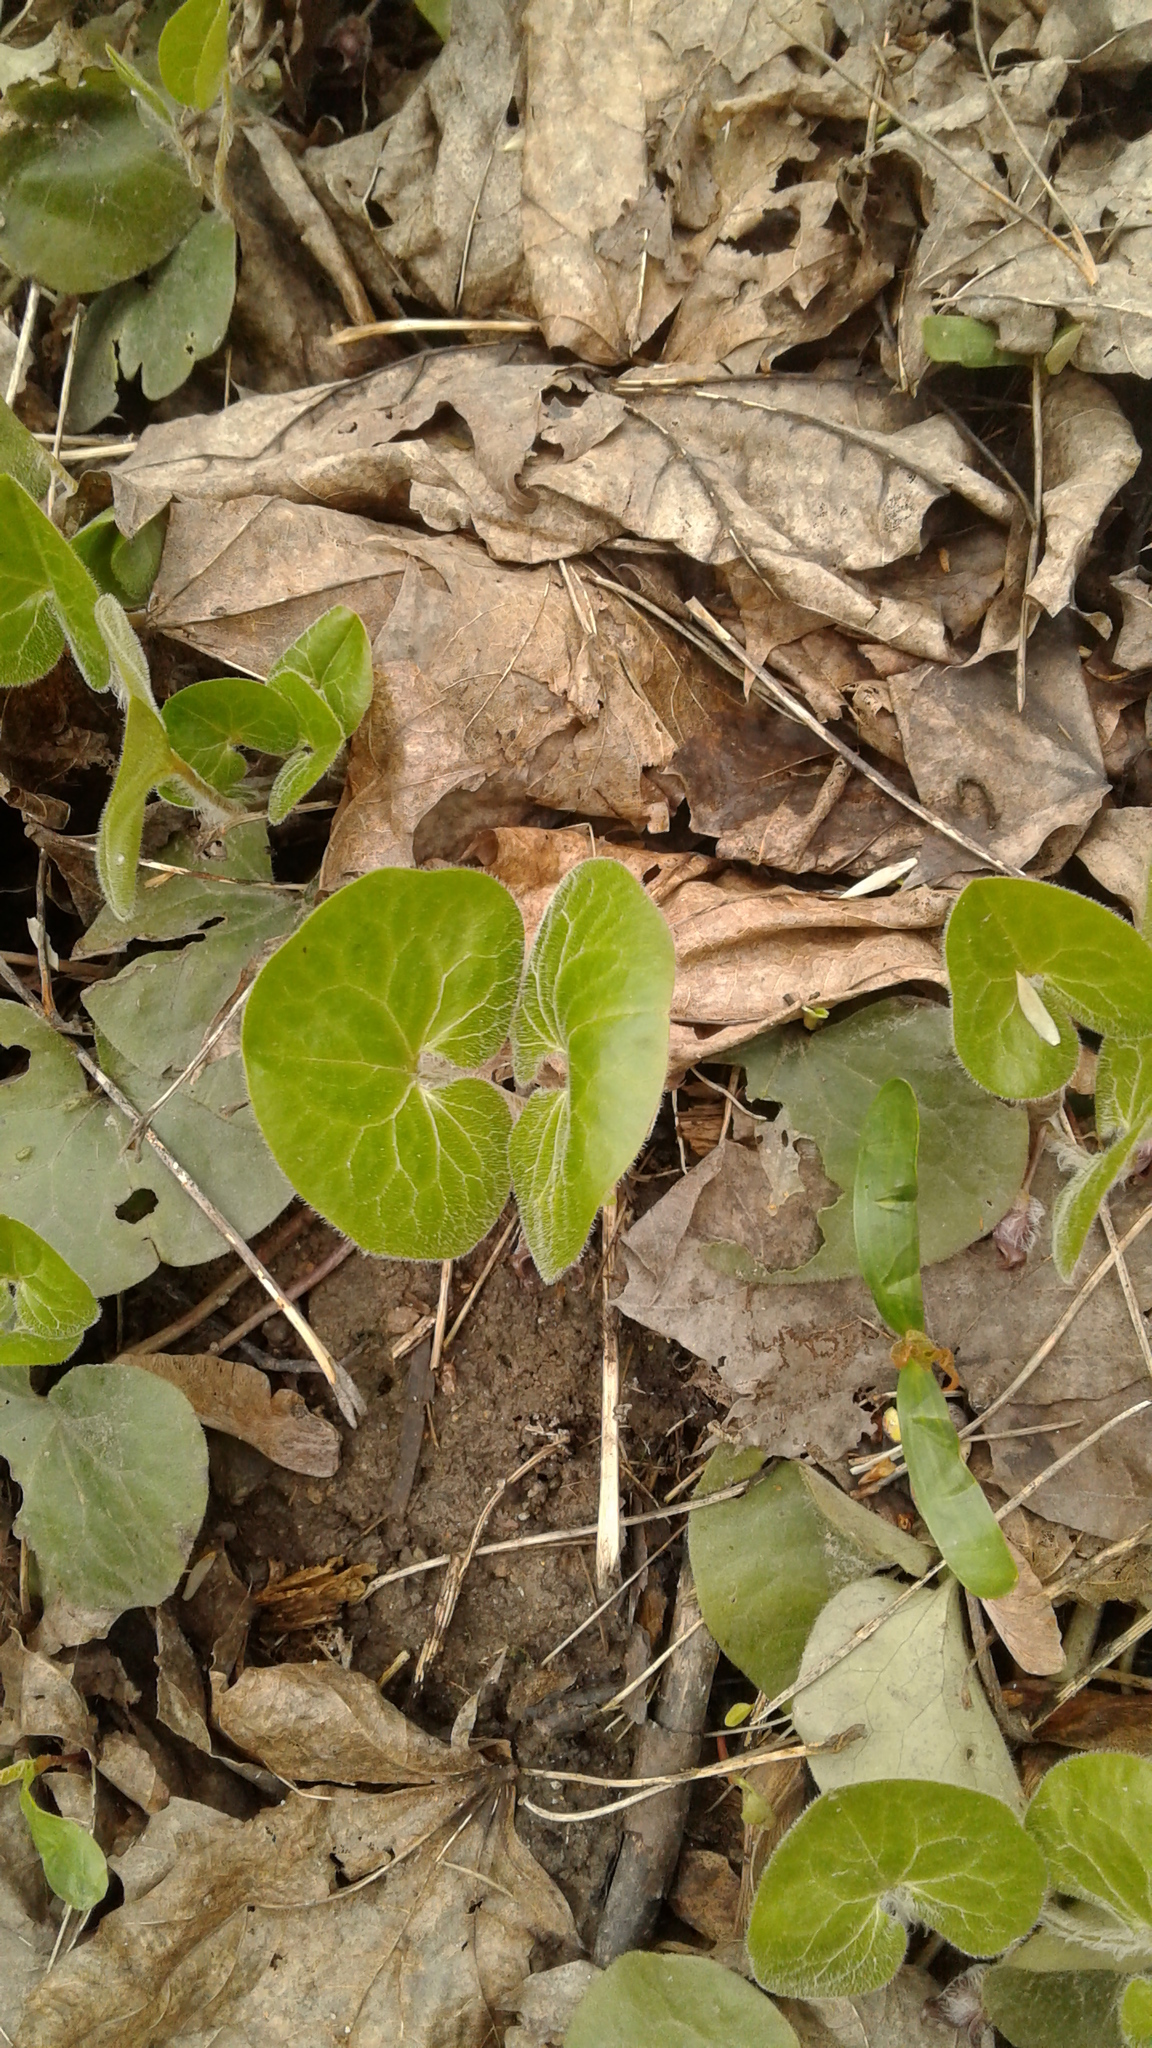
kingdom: Plantae
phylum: Tracheophyta
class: Magnoliopsida
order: Piperales
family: Aristolochiaceae
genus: Asarum
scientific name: Asarum europaeum
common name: Asarabacca
